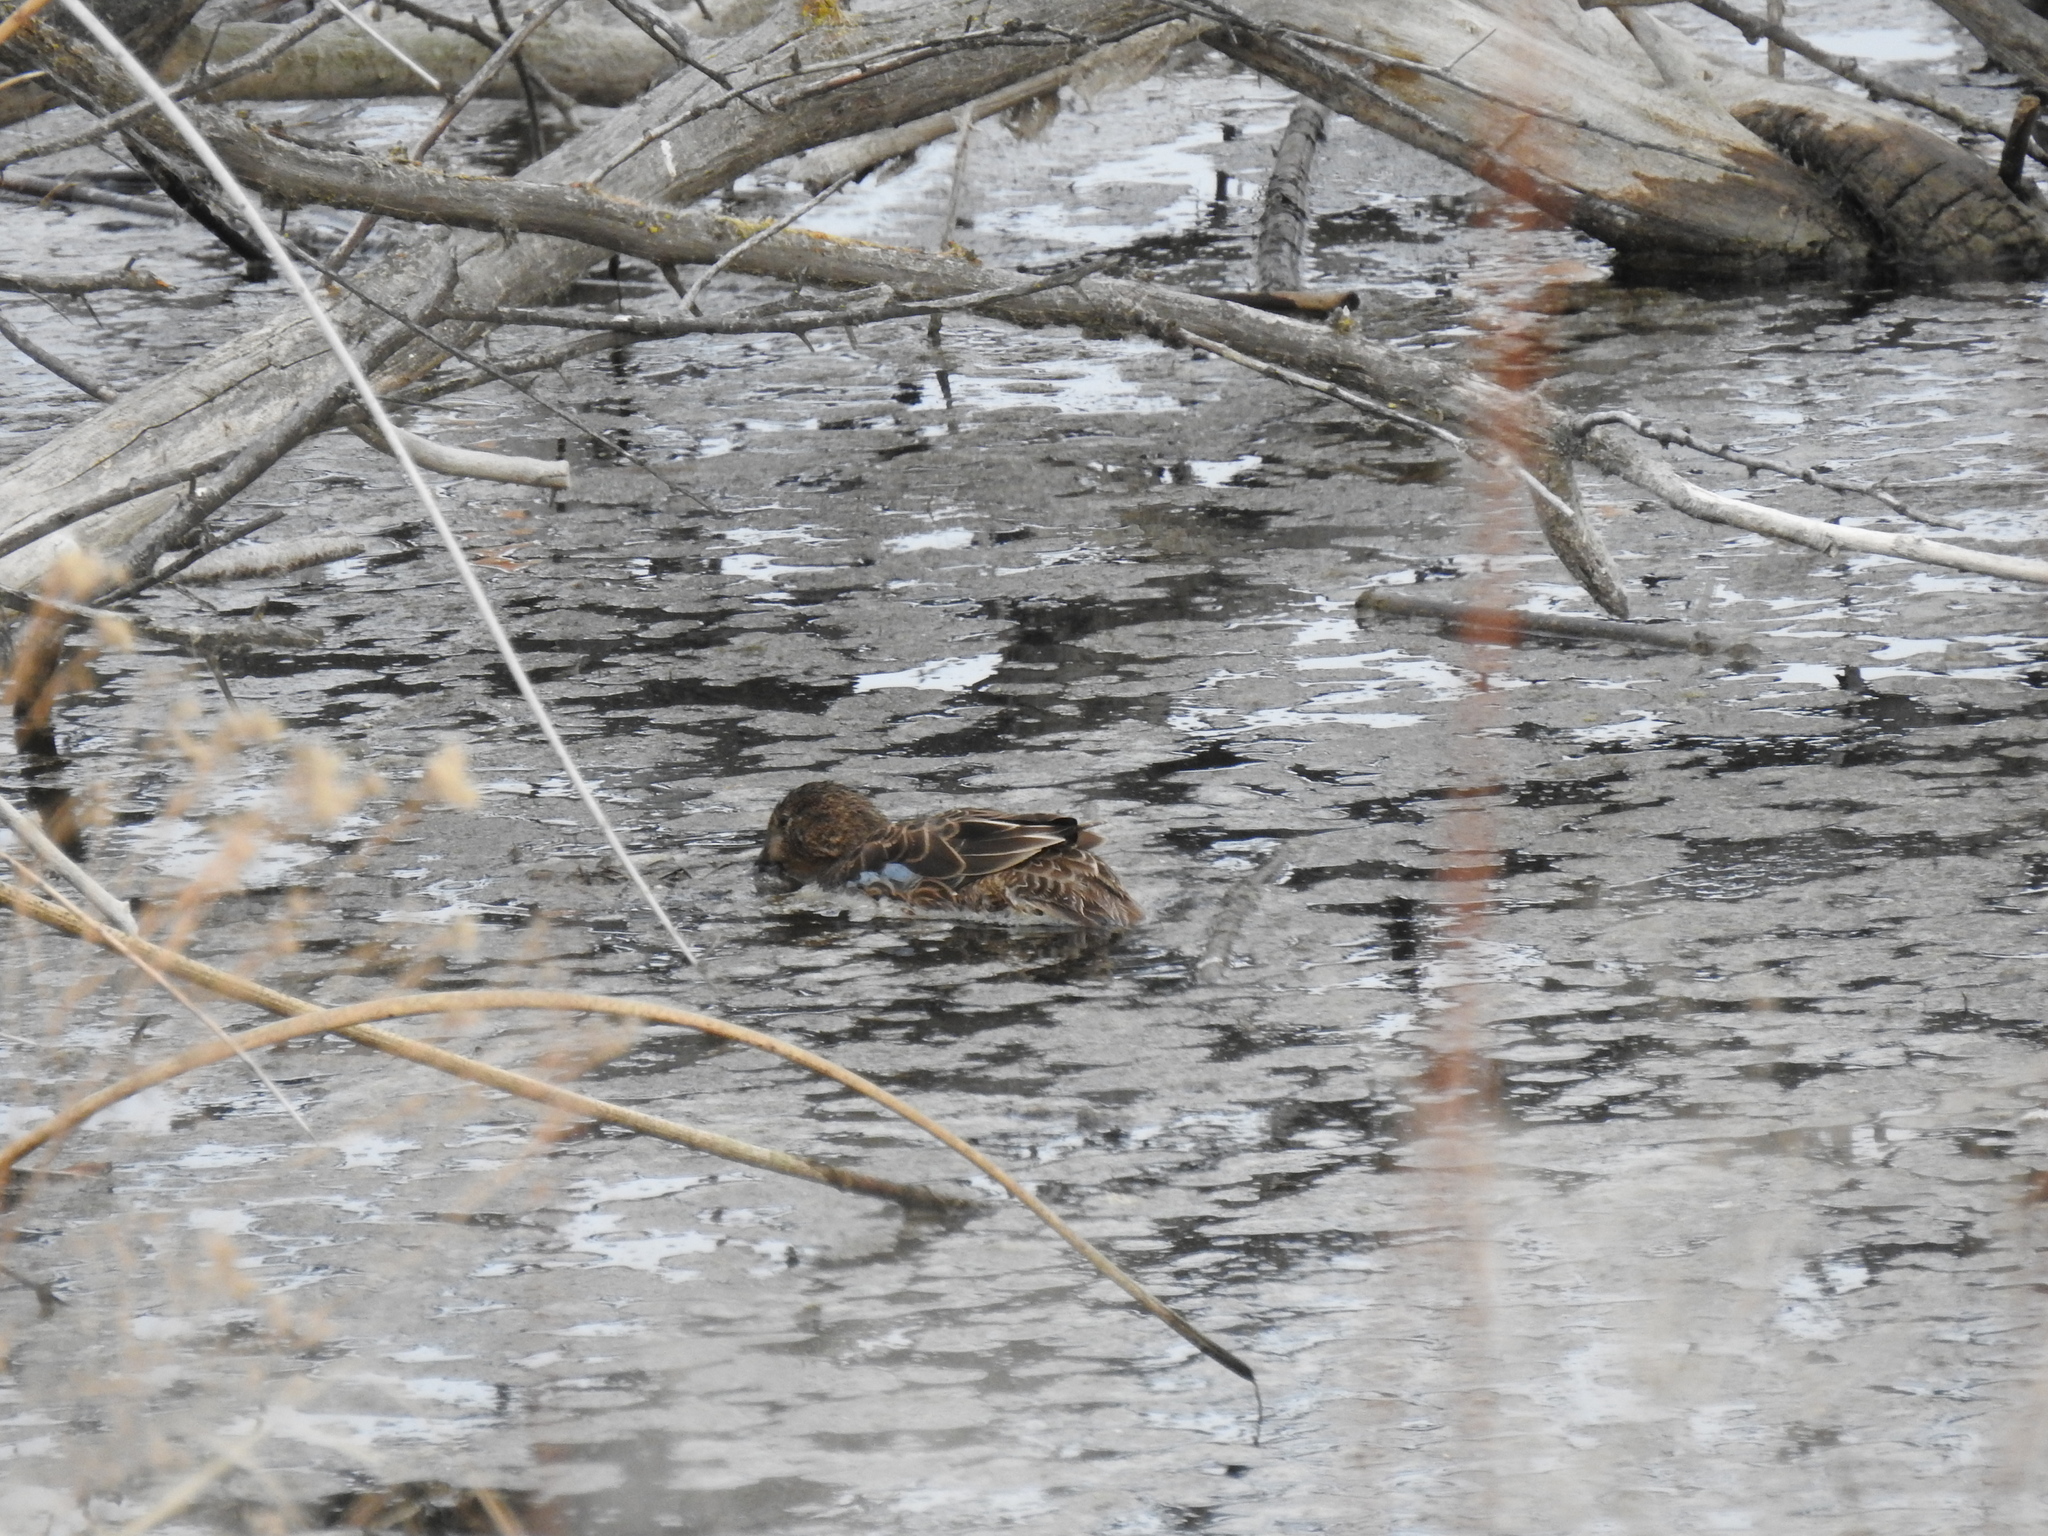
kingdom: Animalia
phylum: Chordata
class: Aves
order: Anseriformes
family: Anatidae
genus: Spatula
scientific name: Spatula cyanoptera
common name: Cinnamon teal
